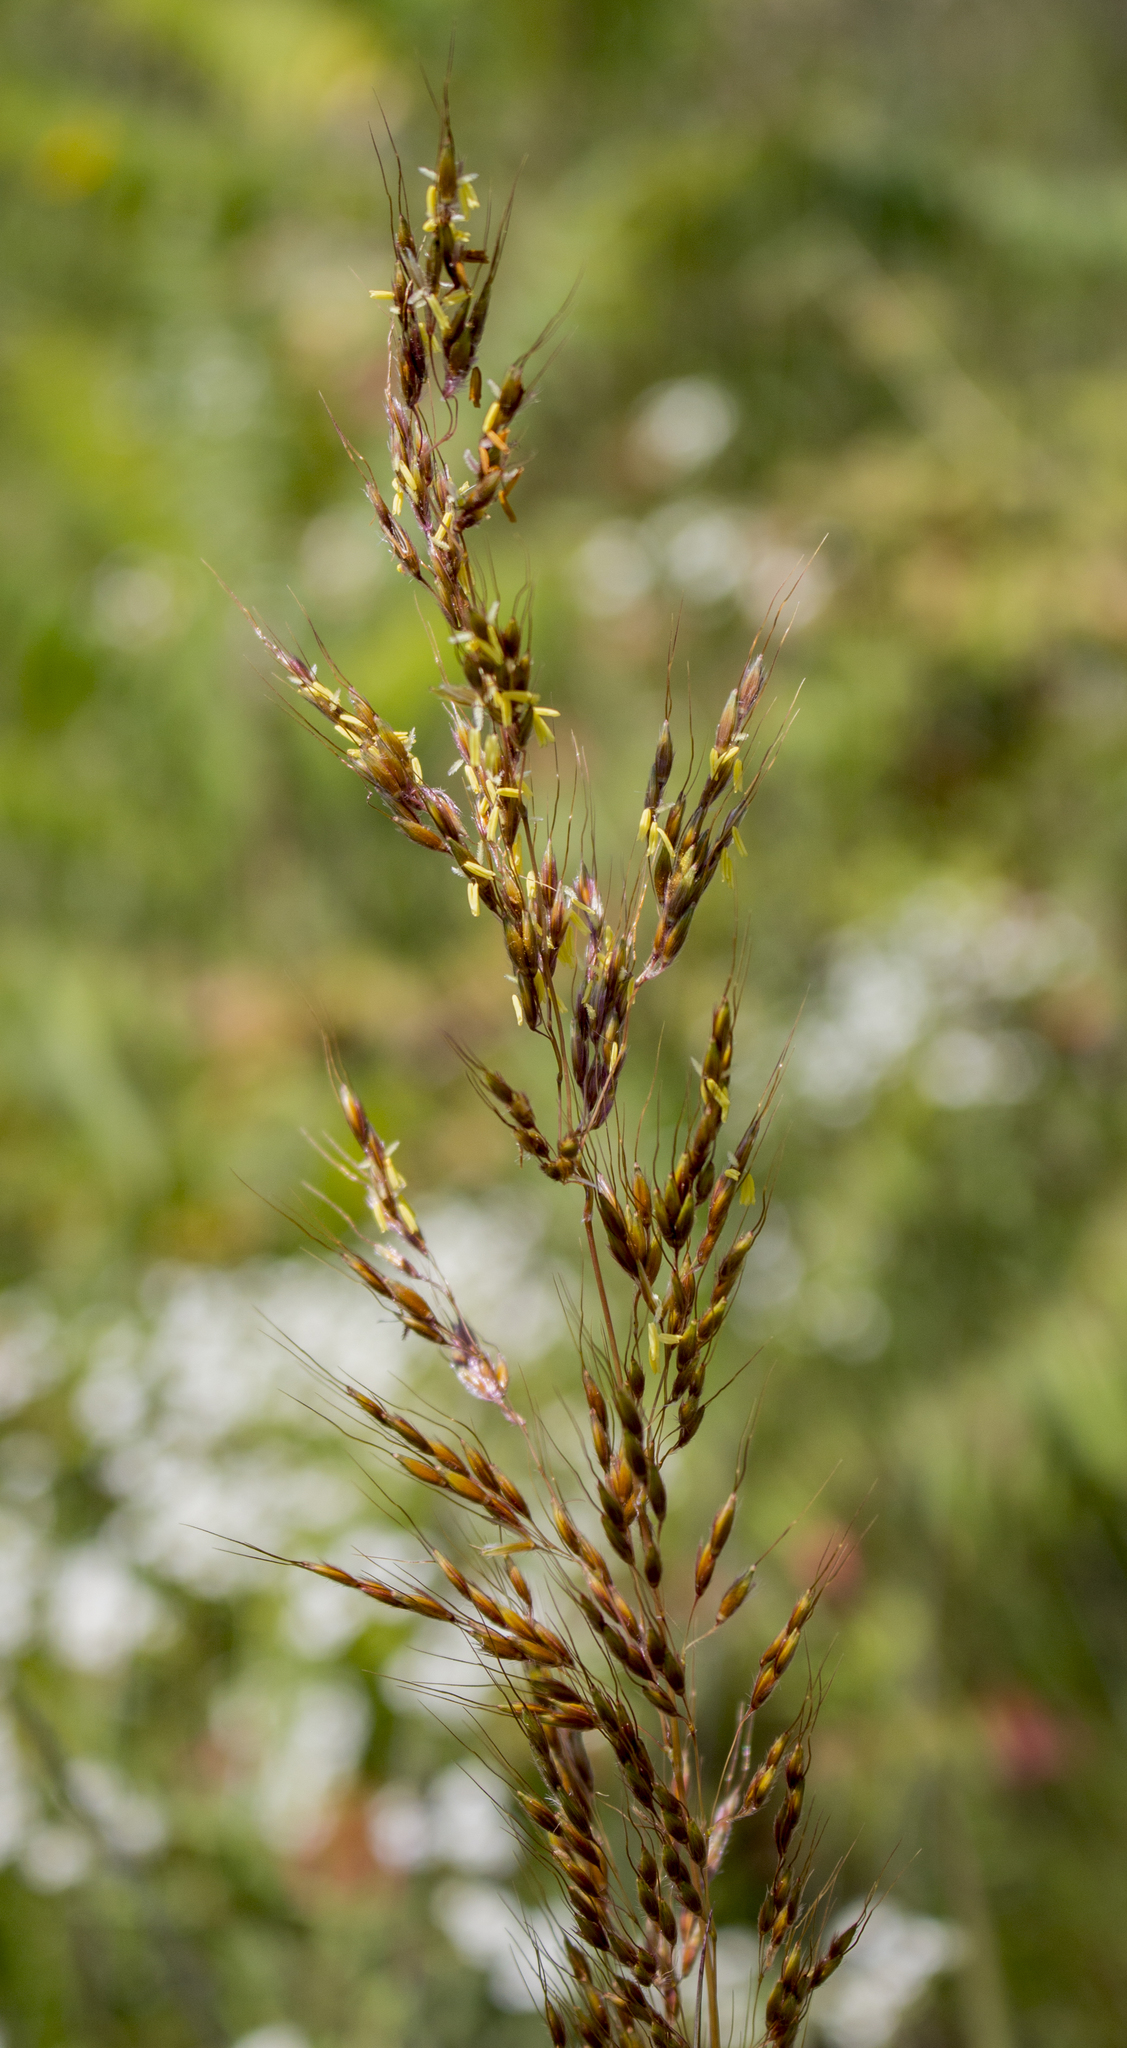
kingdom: Plantae
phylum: Tracheophyta
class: Liliopsida
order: Poales
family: Poaceae
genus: Sorghastrum
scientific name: Sorghastrum nutans
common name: Indian grass
